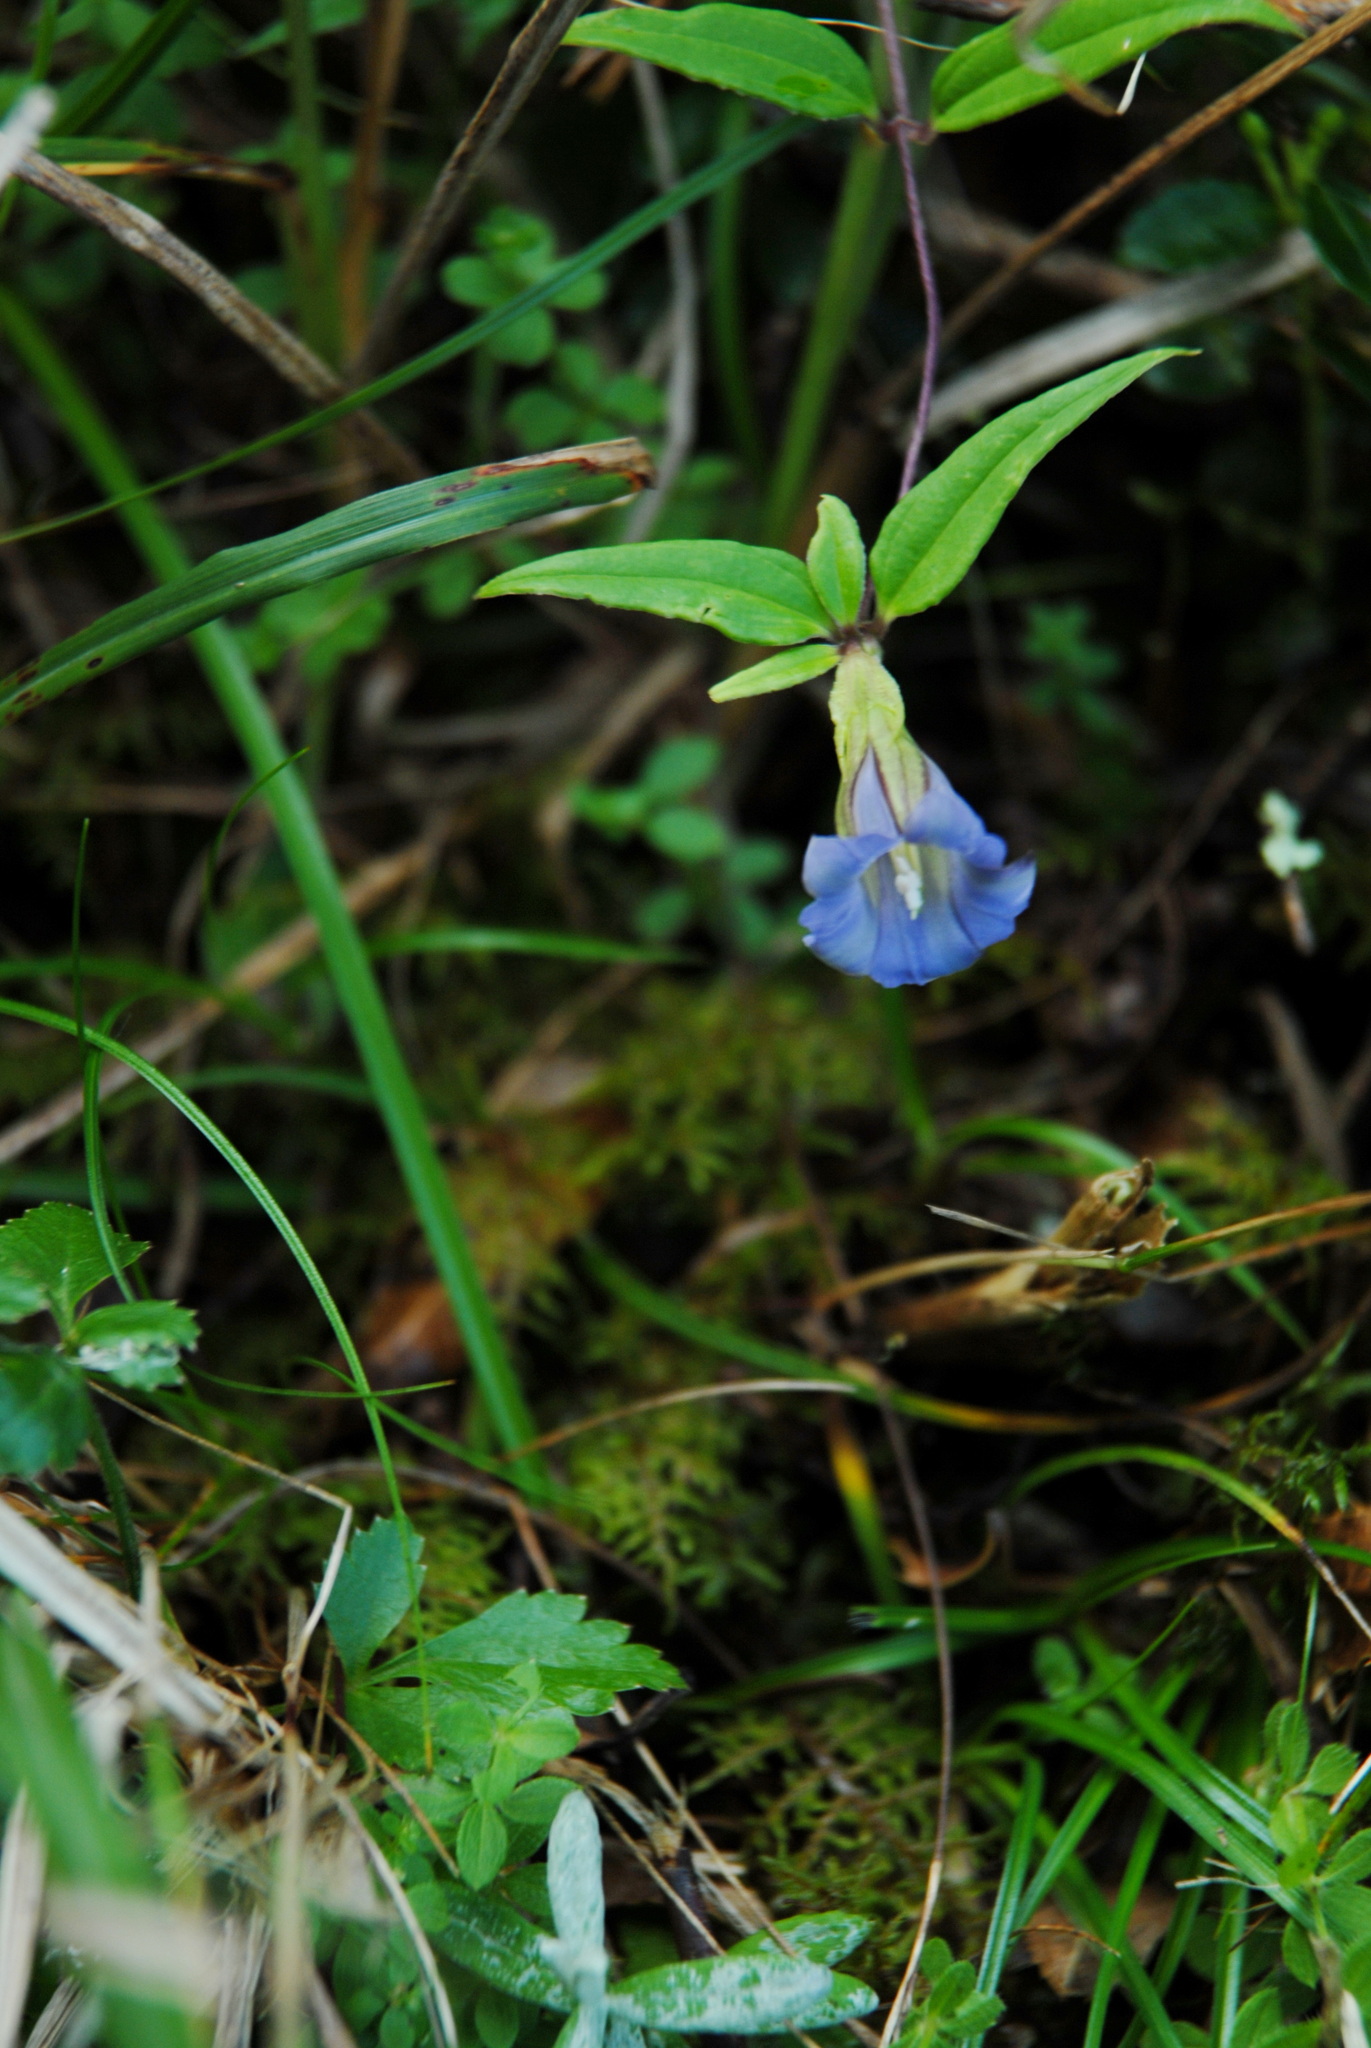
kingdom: Plantae
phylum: Tracheophyta
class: Magnoliopsida
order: Gentianales
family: Gentianaceae
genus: Tripterospermum
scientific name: Tripterospermum lanceolatum
